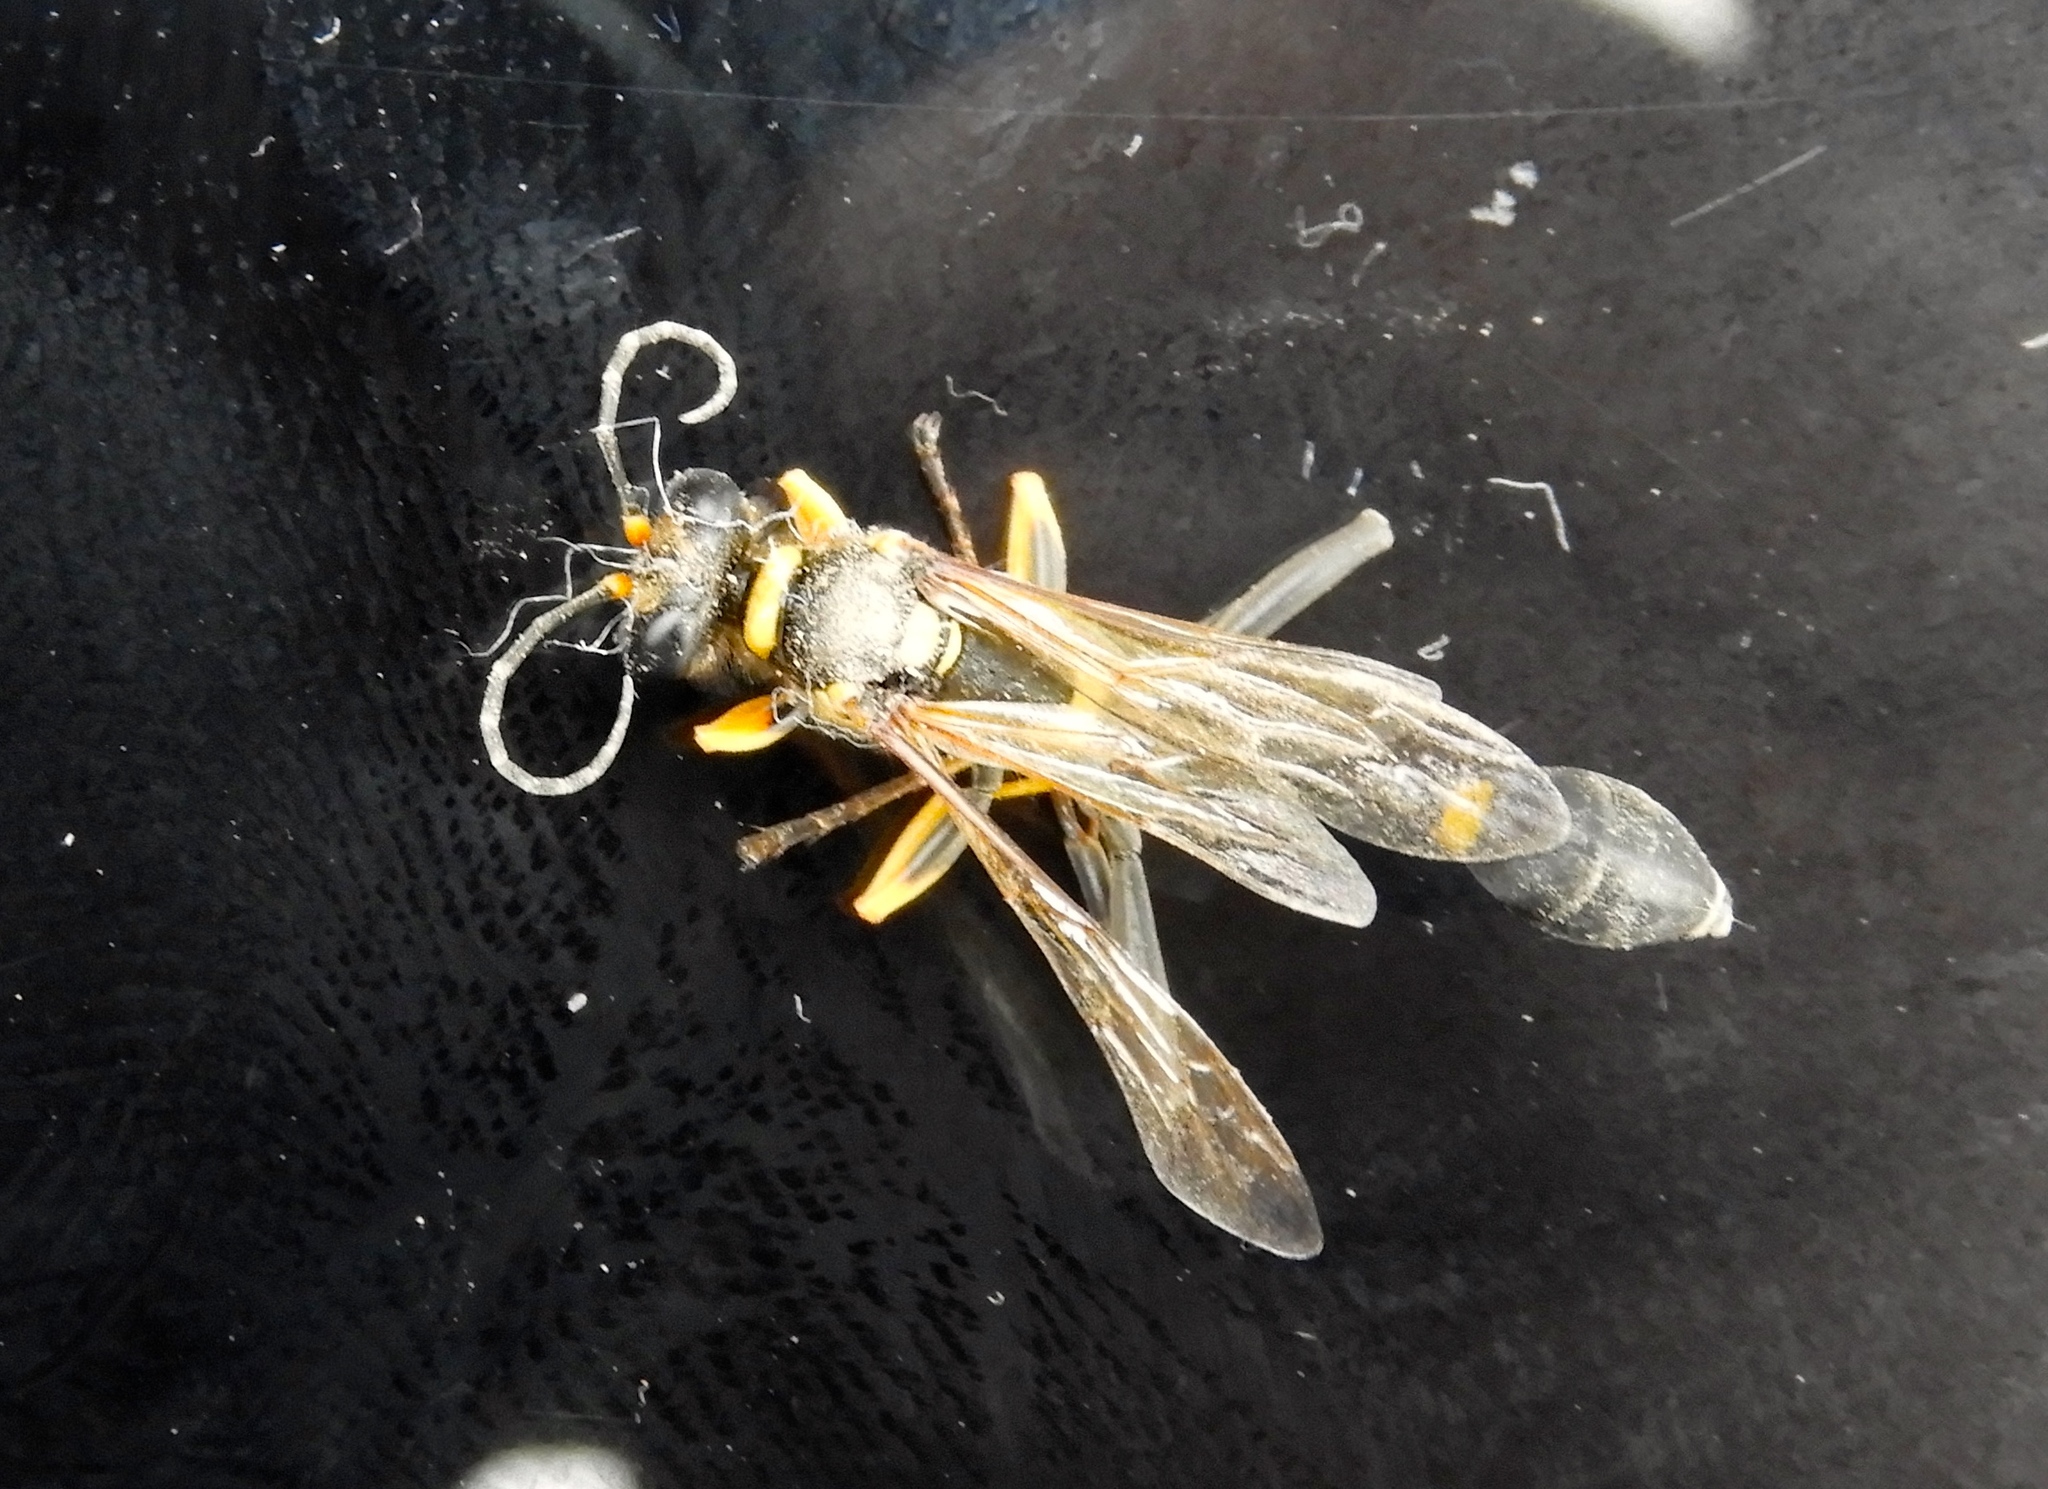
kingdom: Animalia
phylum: Arthropoda
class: Insecta
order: Hymenoptera
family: Sphecidae
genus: Sceliphron
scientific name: Sceliphron assimile
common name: Clayman's mud dauber
